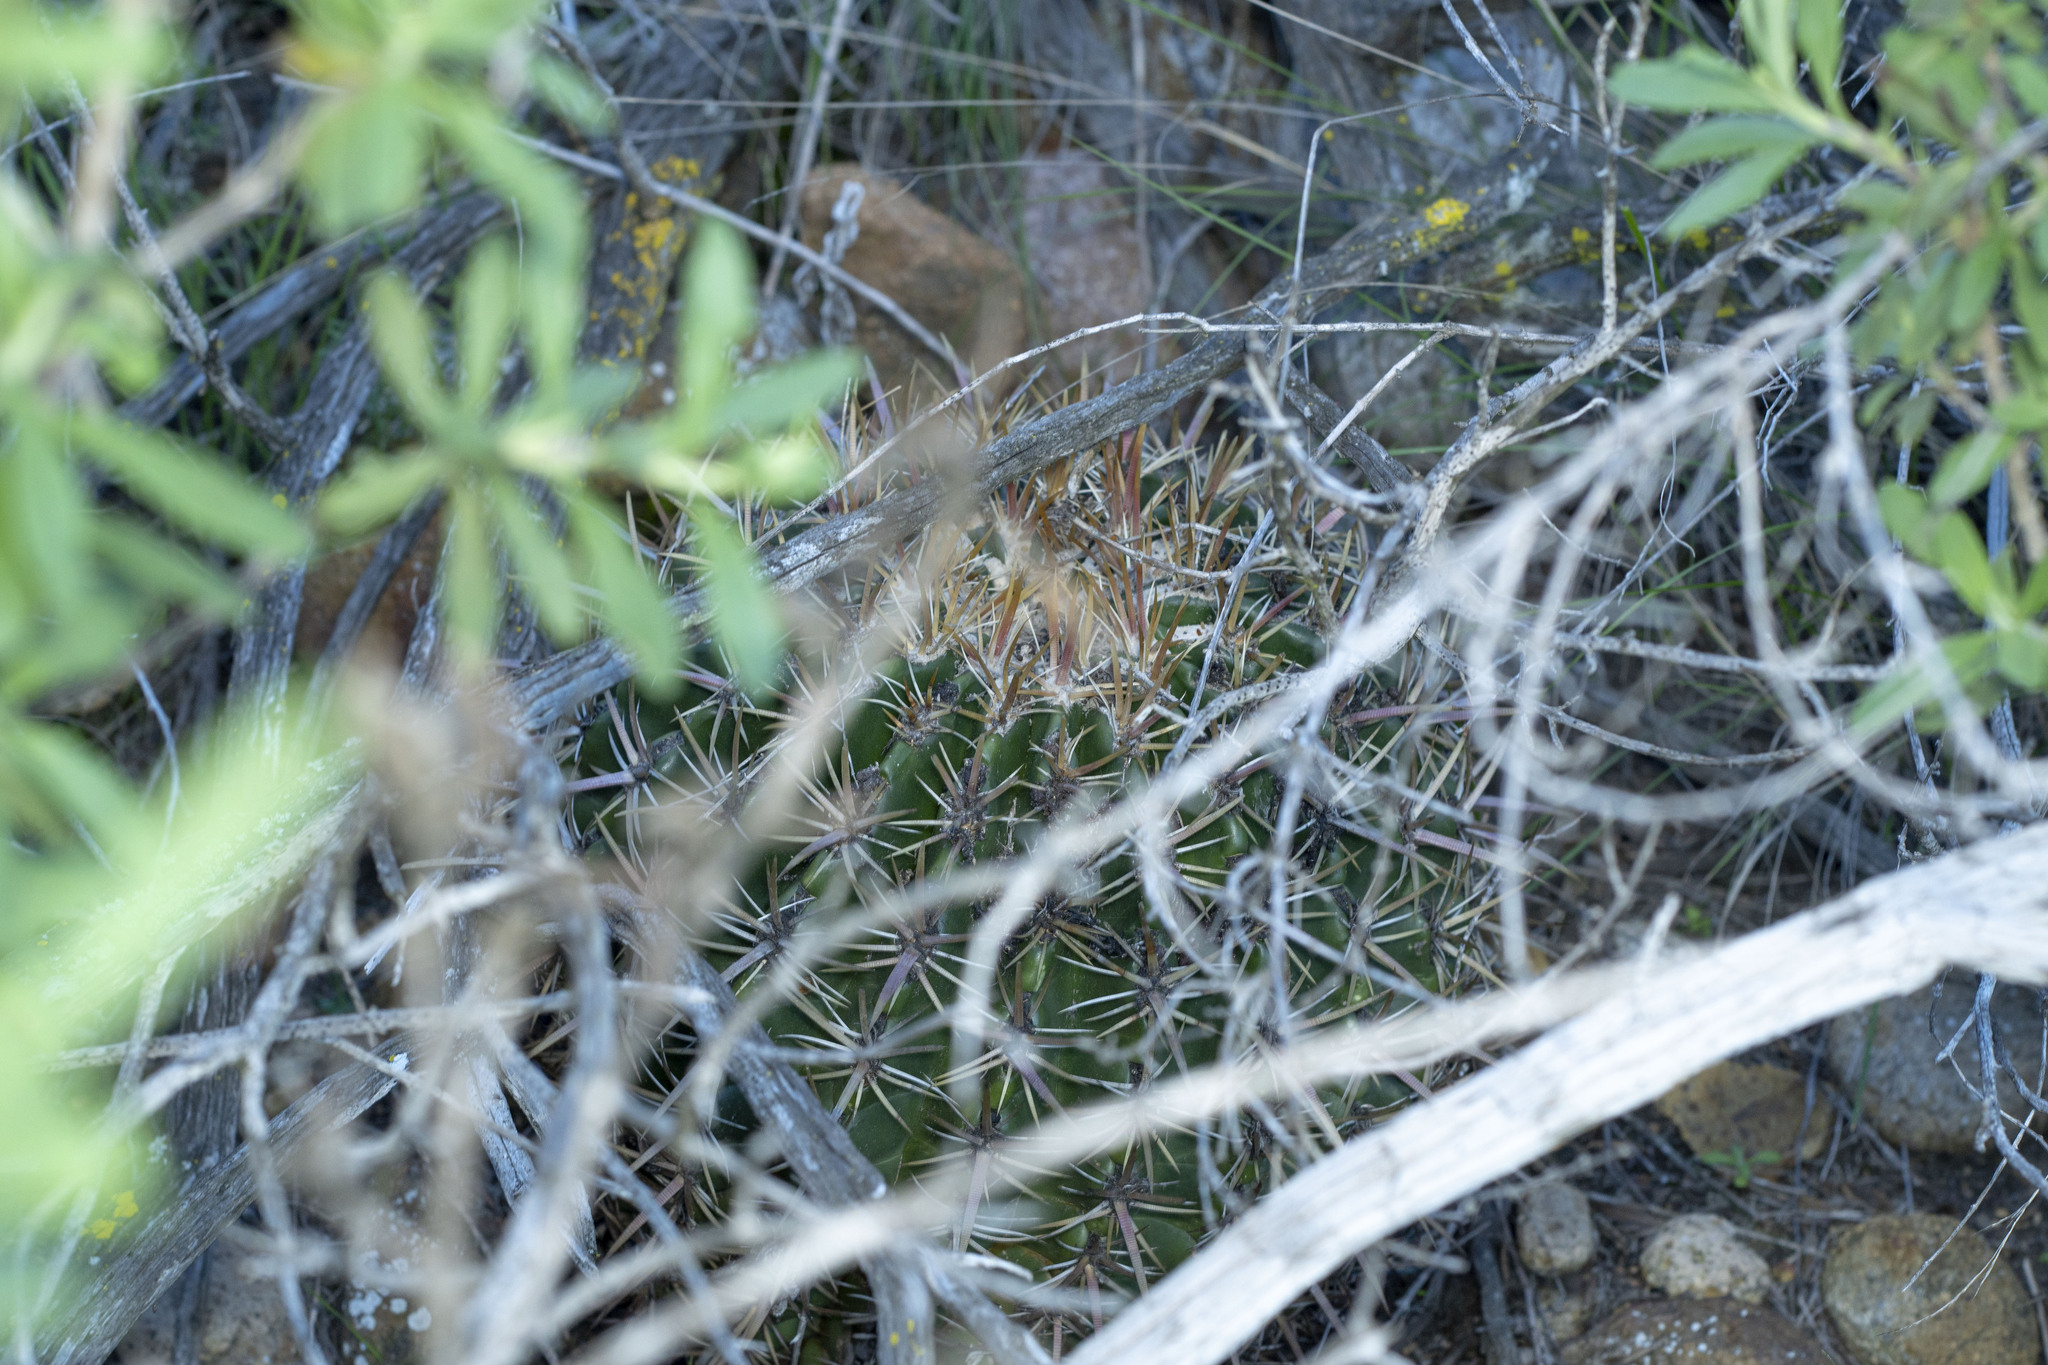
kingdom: Plantae
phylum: Tracheophyta
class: Magnoliopsida
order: Caryophyllales
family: Cactaceae
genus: Ferocactus
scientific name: Ferocactus viridescens
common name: San diego barrel cactus
